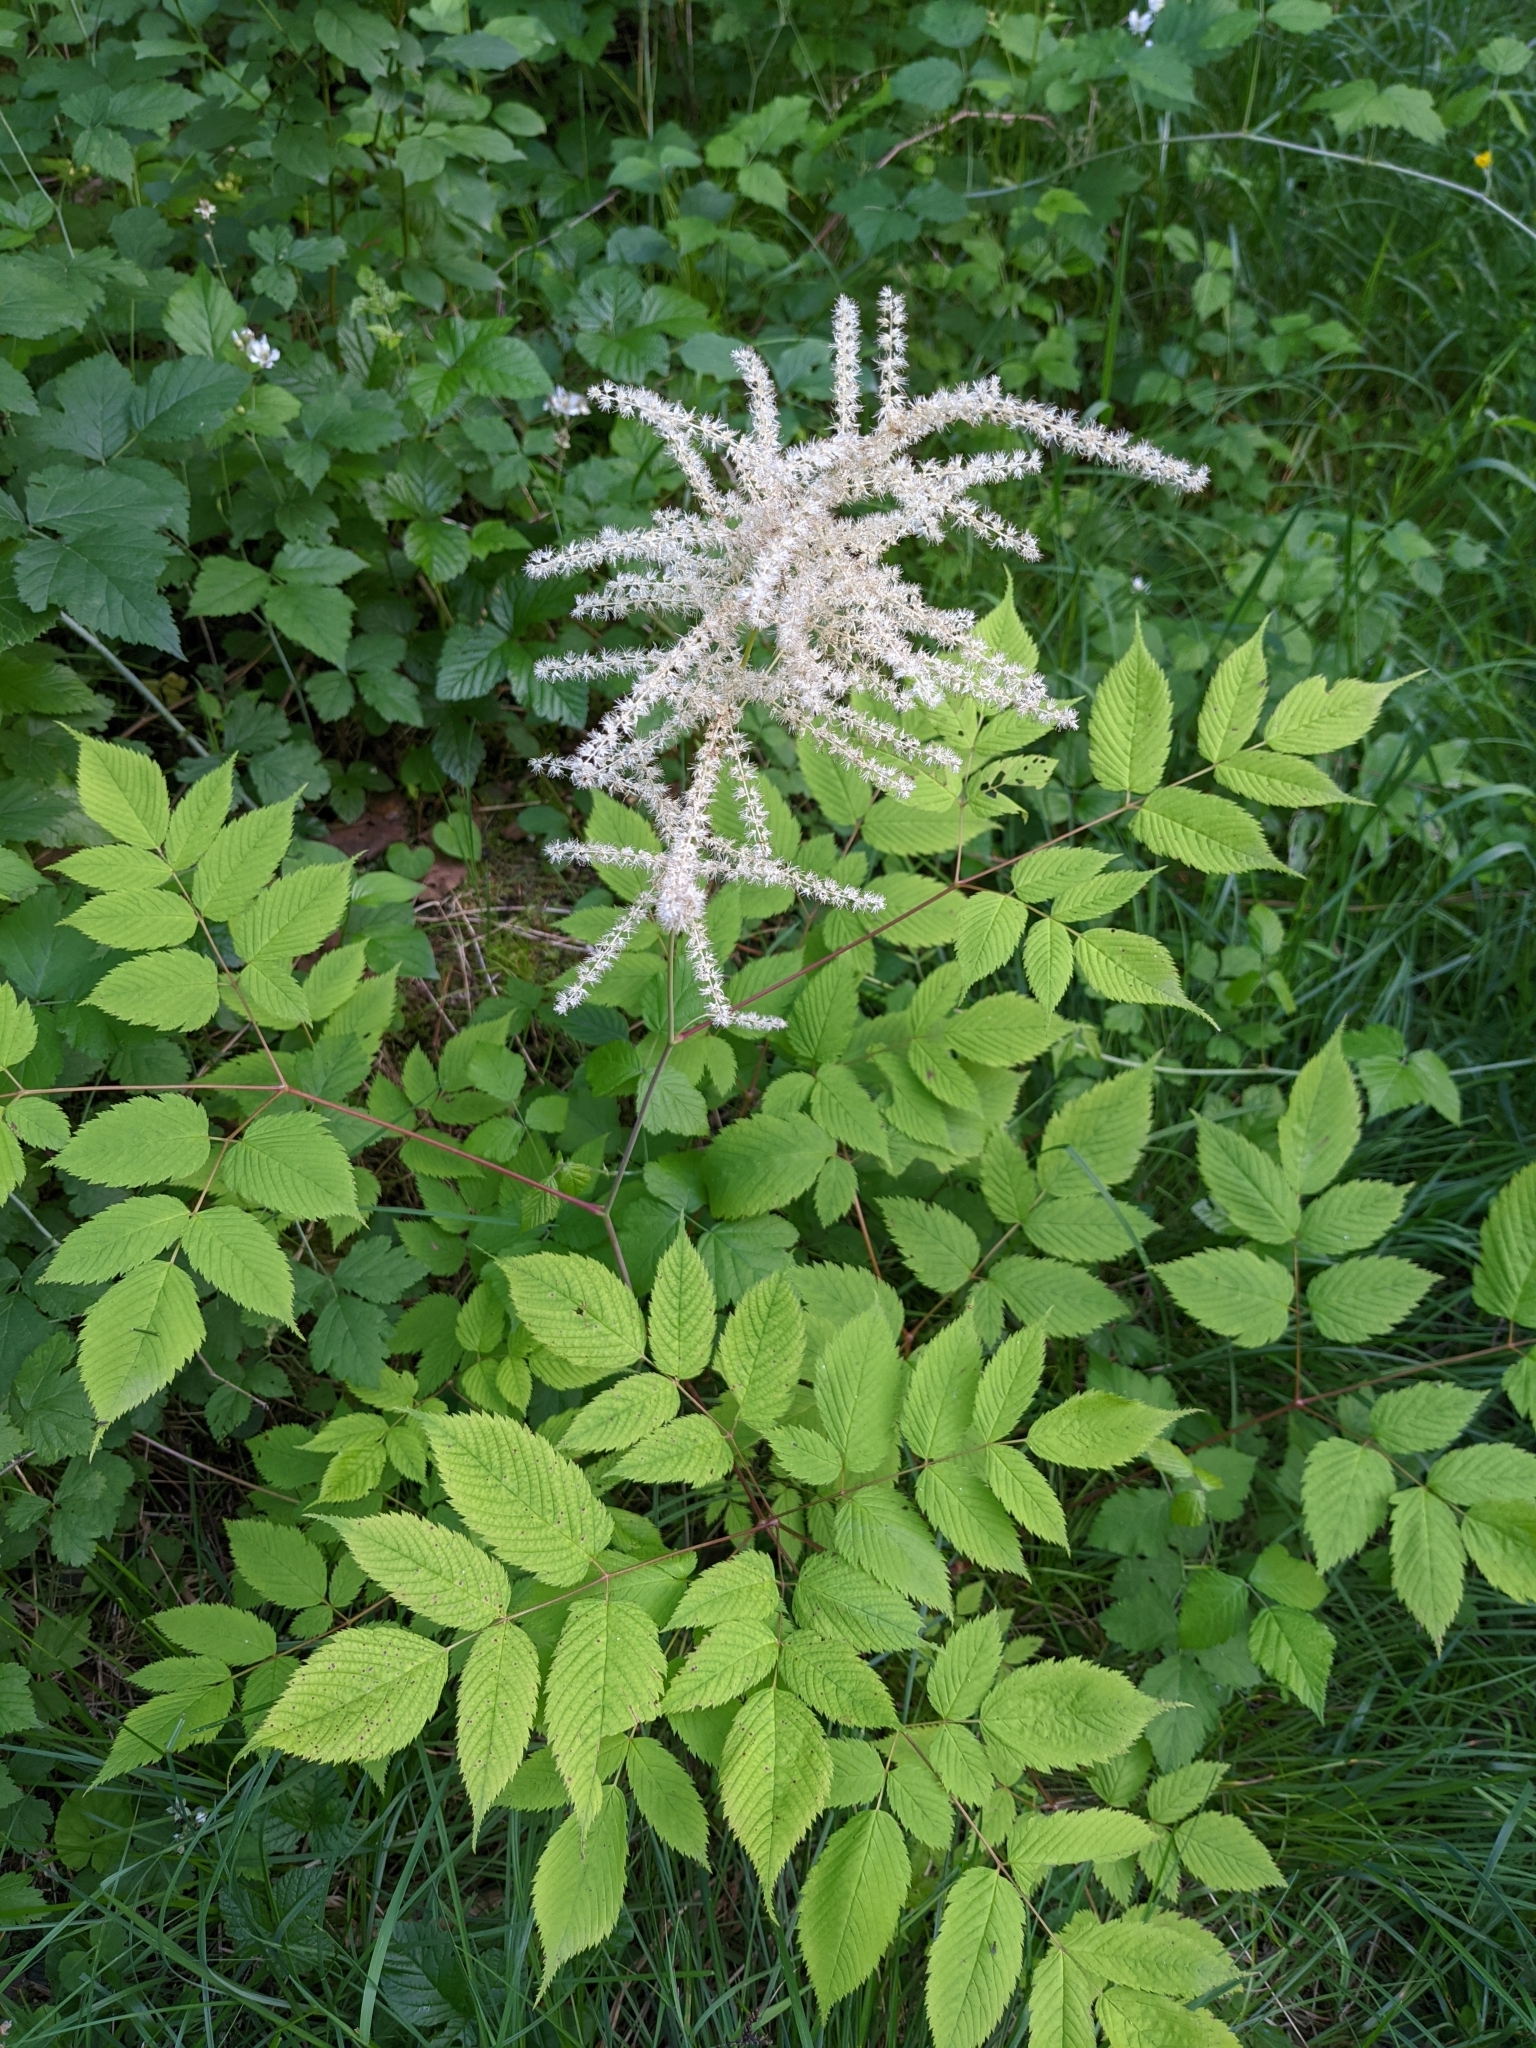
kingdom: Plantae
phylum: Tracheophyta
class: Magnoliopsida
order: Rosales
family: Rosaceae
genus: Aruncus
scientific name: Aruncus dioicus
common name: Buck's-beard
